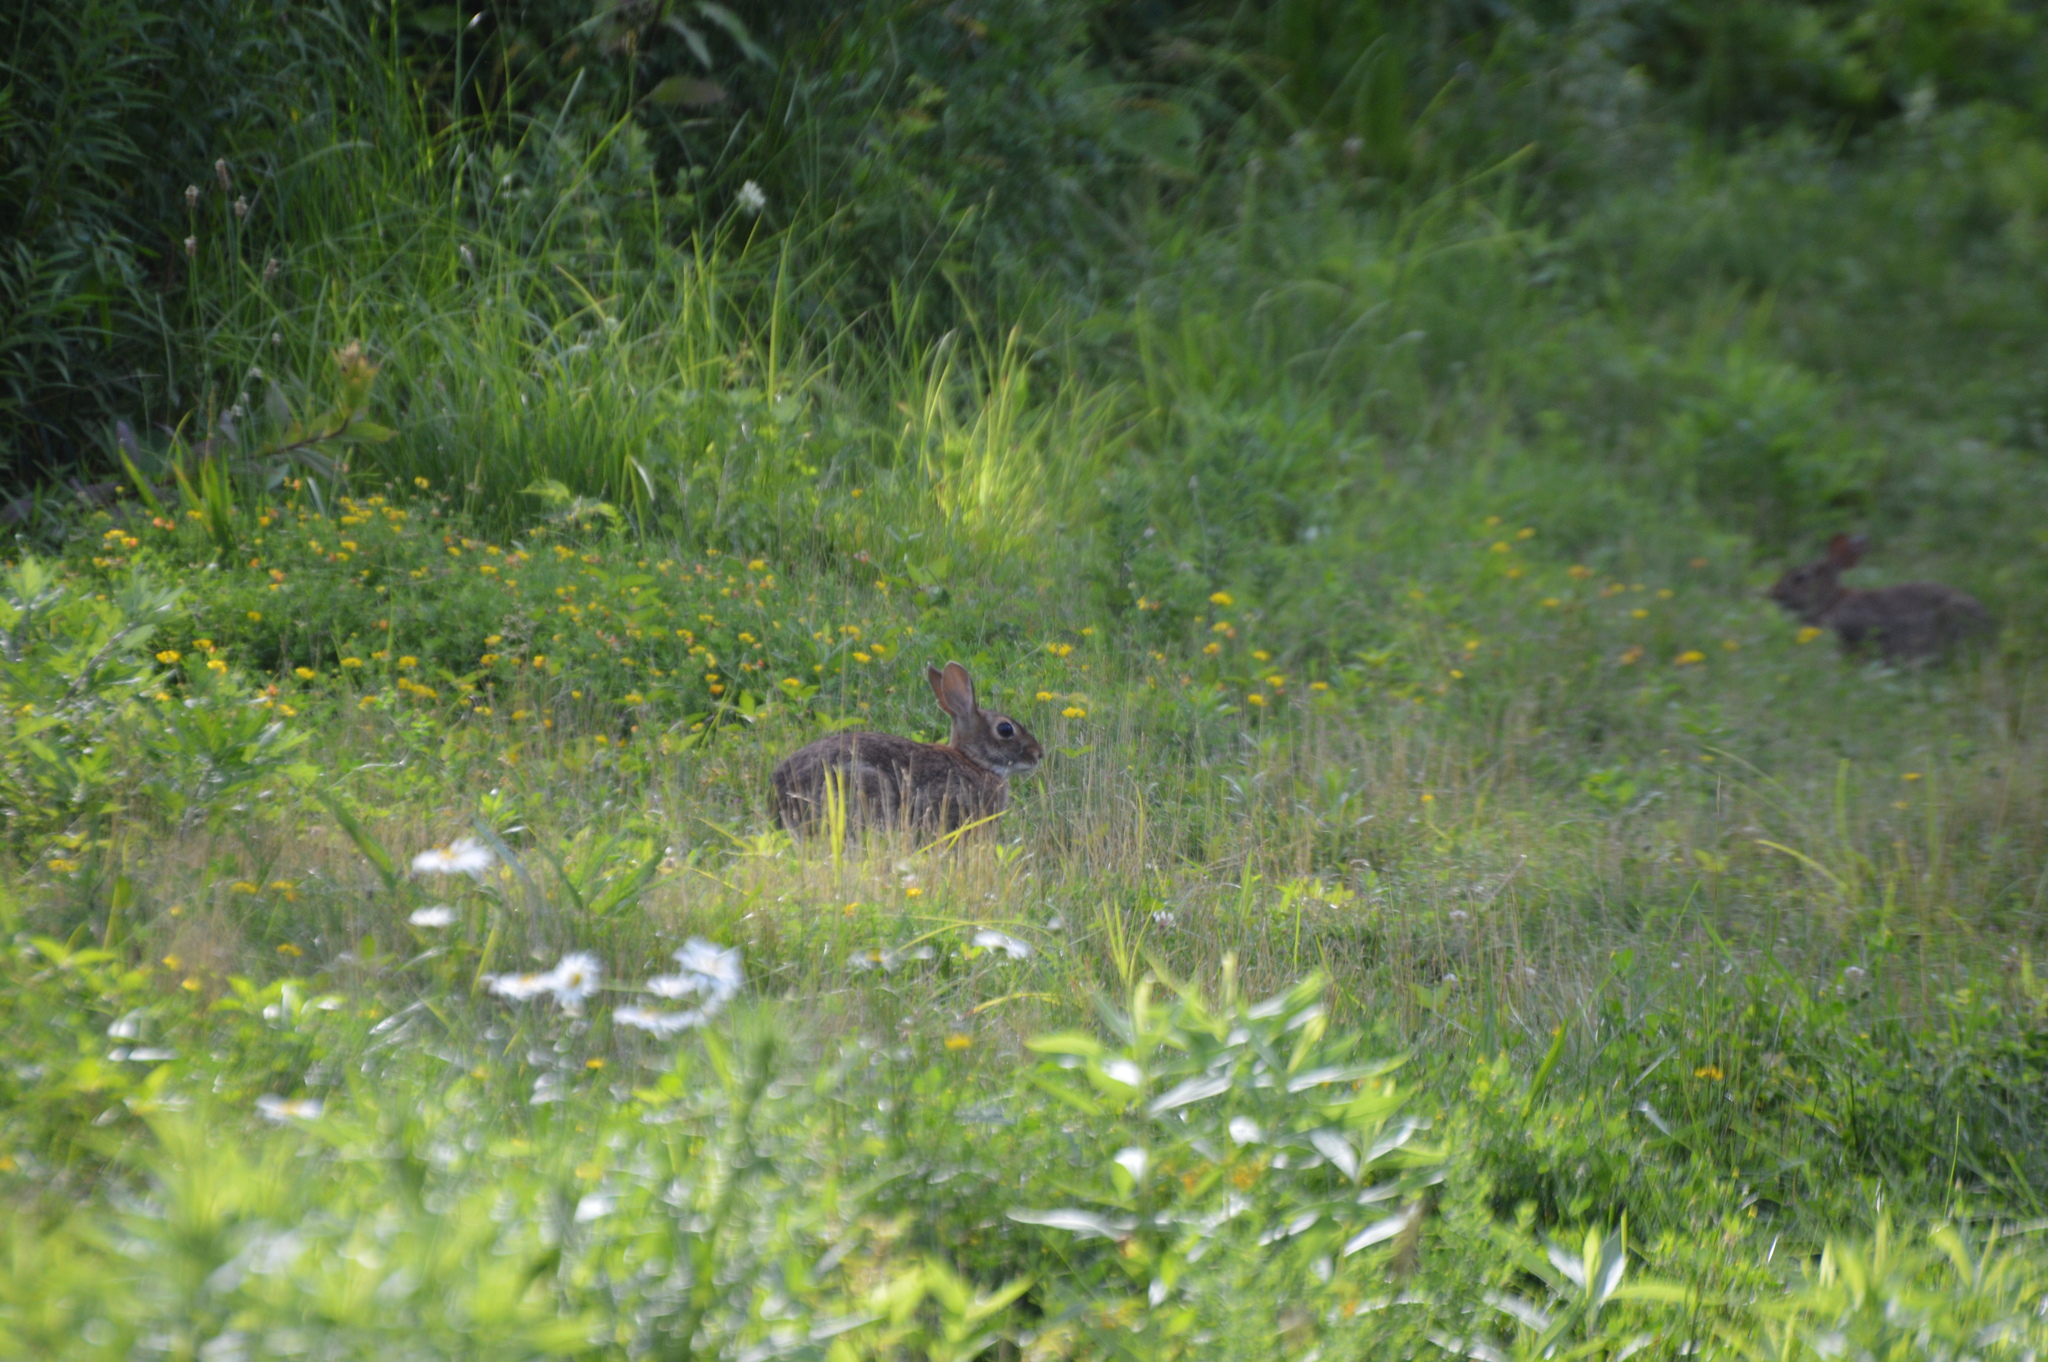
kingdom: Animalia
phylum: Chordata
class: Mammalia
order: Lagomorpha
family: Leporidae
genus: Sylvilagus
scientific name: Sylvilagus floridanus
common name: Eastern cottontail
